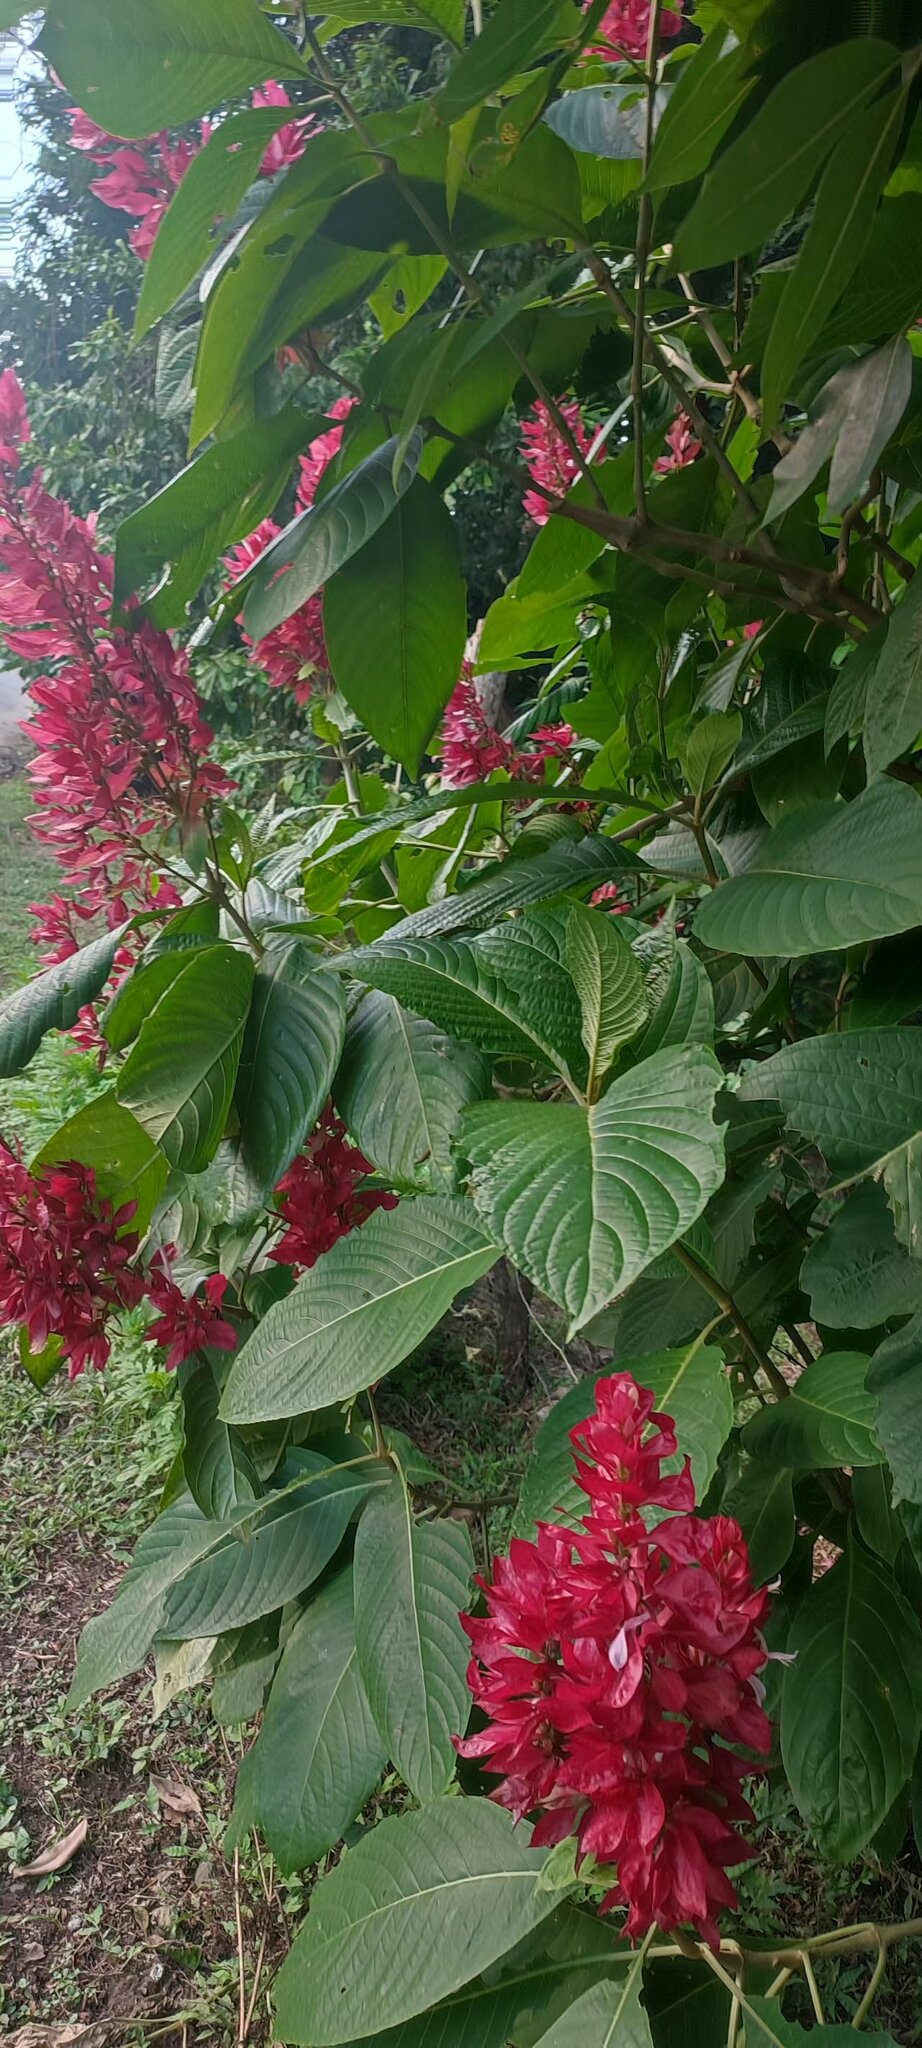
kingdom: Plantae
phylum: Tracheophyta
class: Magnoliopsida
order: Lamiales
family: Acanthaceae
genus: Megaskepasma
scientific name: Megaskepasma erythrochlamys
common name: Brazilian red-cloak
